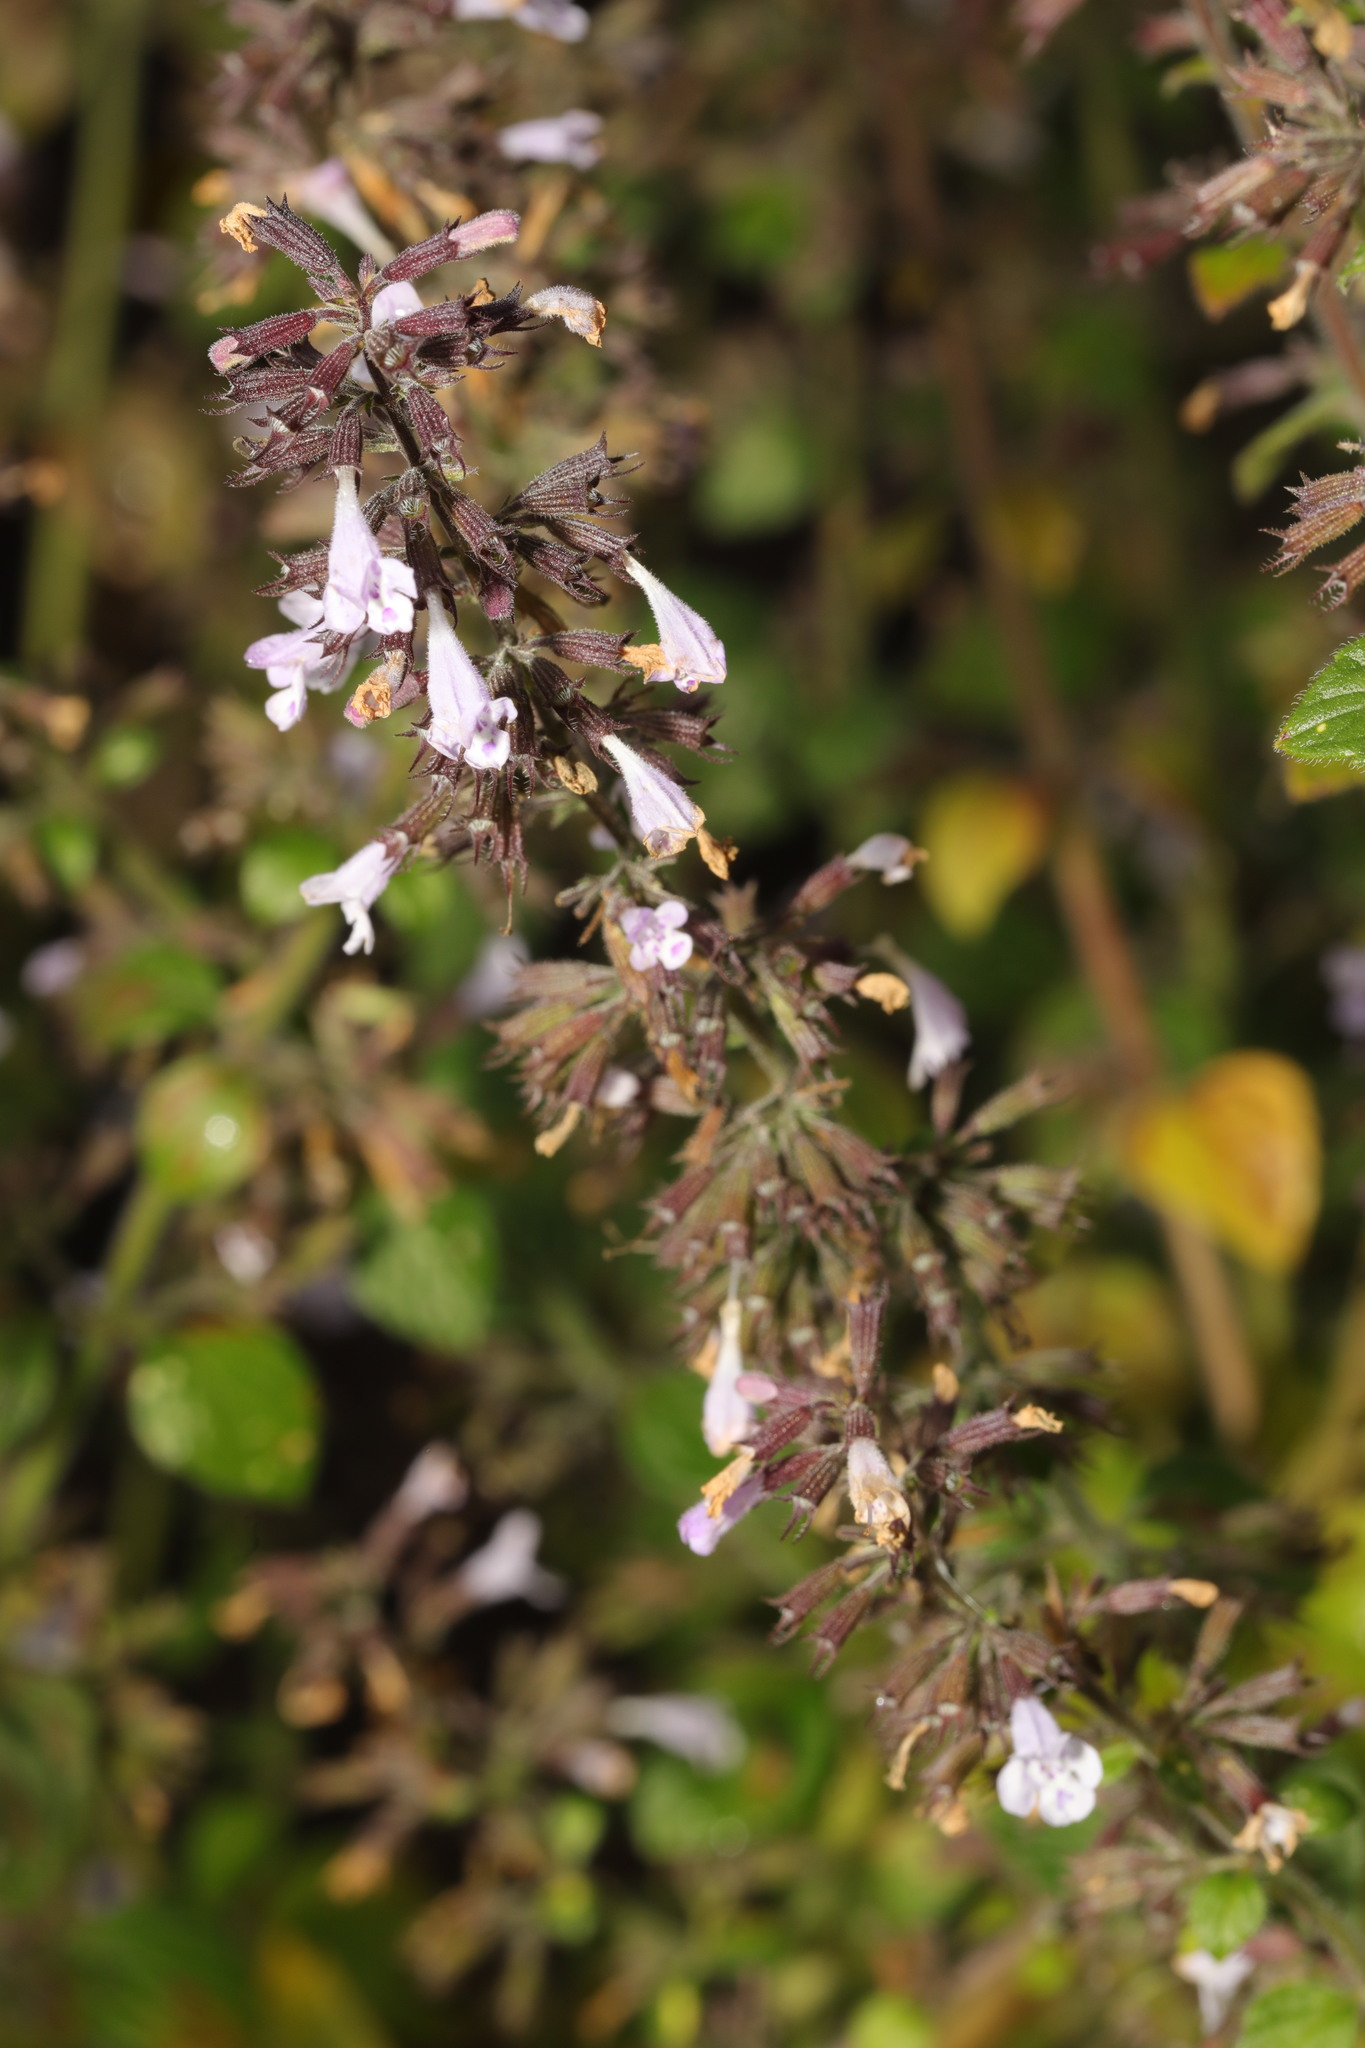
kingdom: Plantae
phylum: Tracheophyta
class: Magnoliopsida
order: Lamiales
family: Lamiaceae
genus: Clinopodium
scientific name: Clinopodium menthifolium
